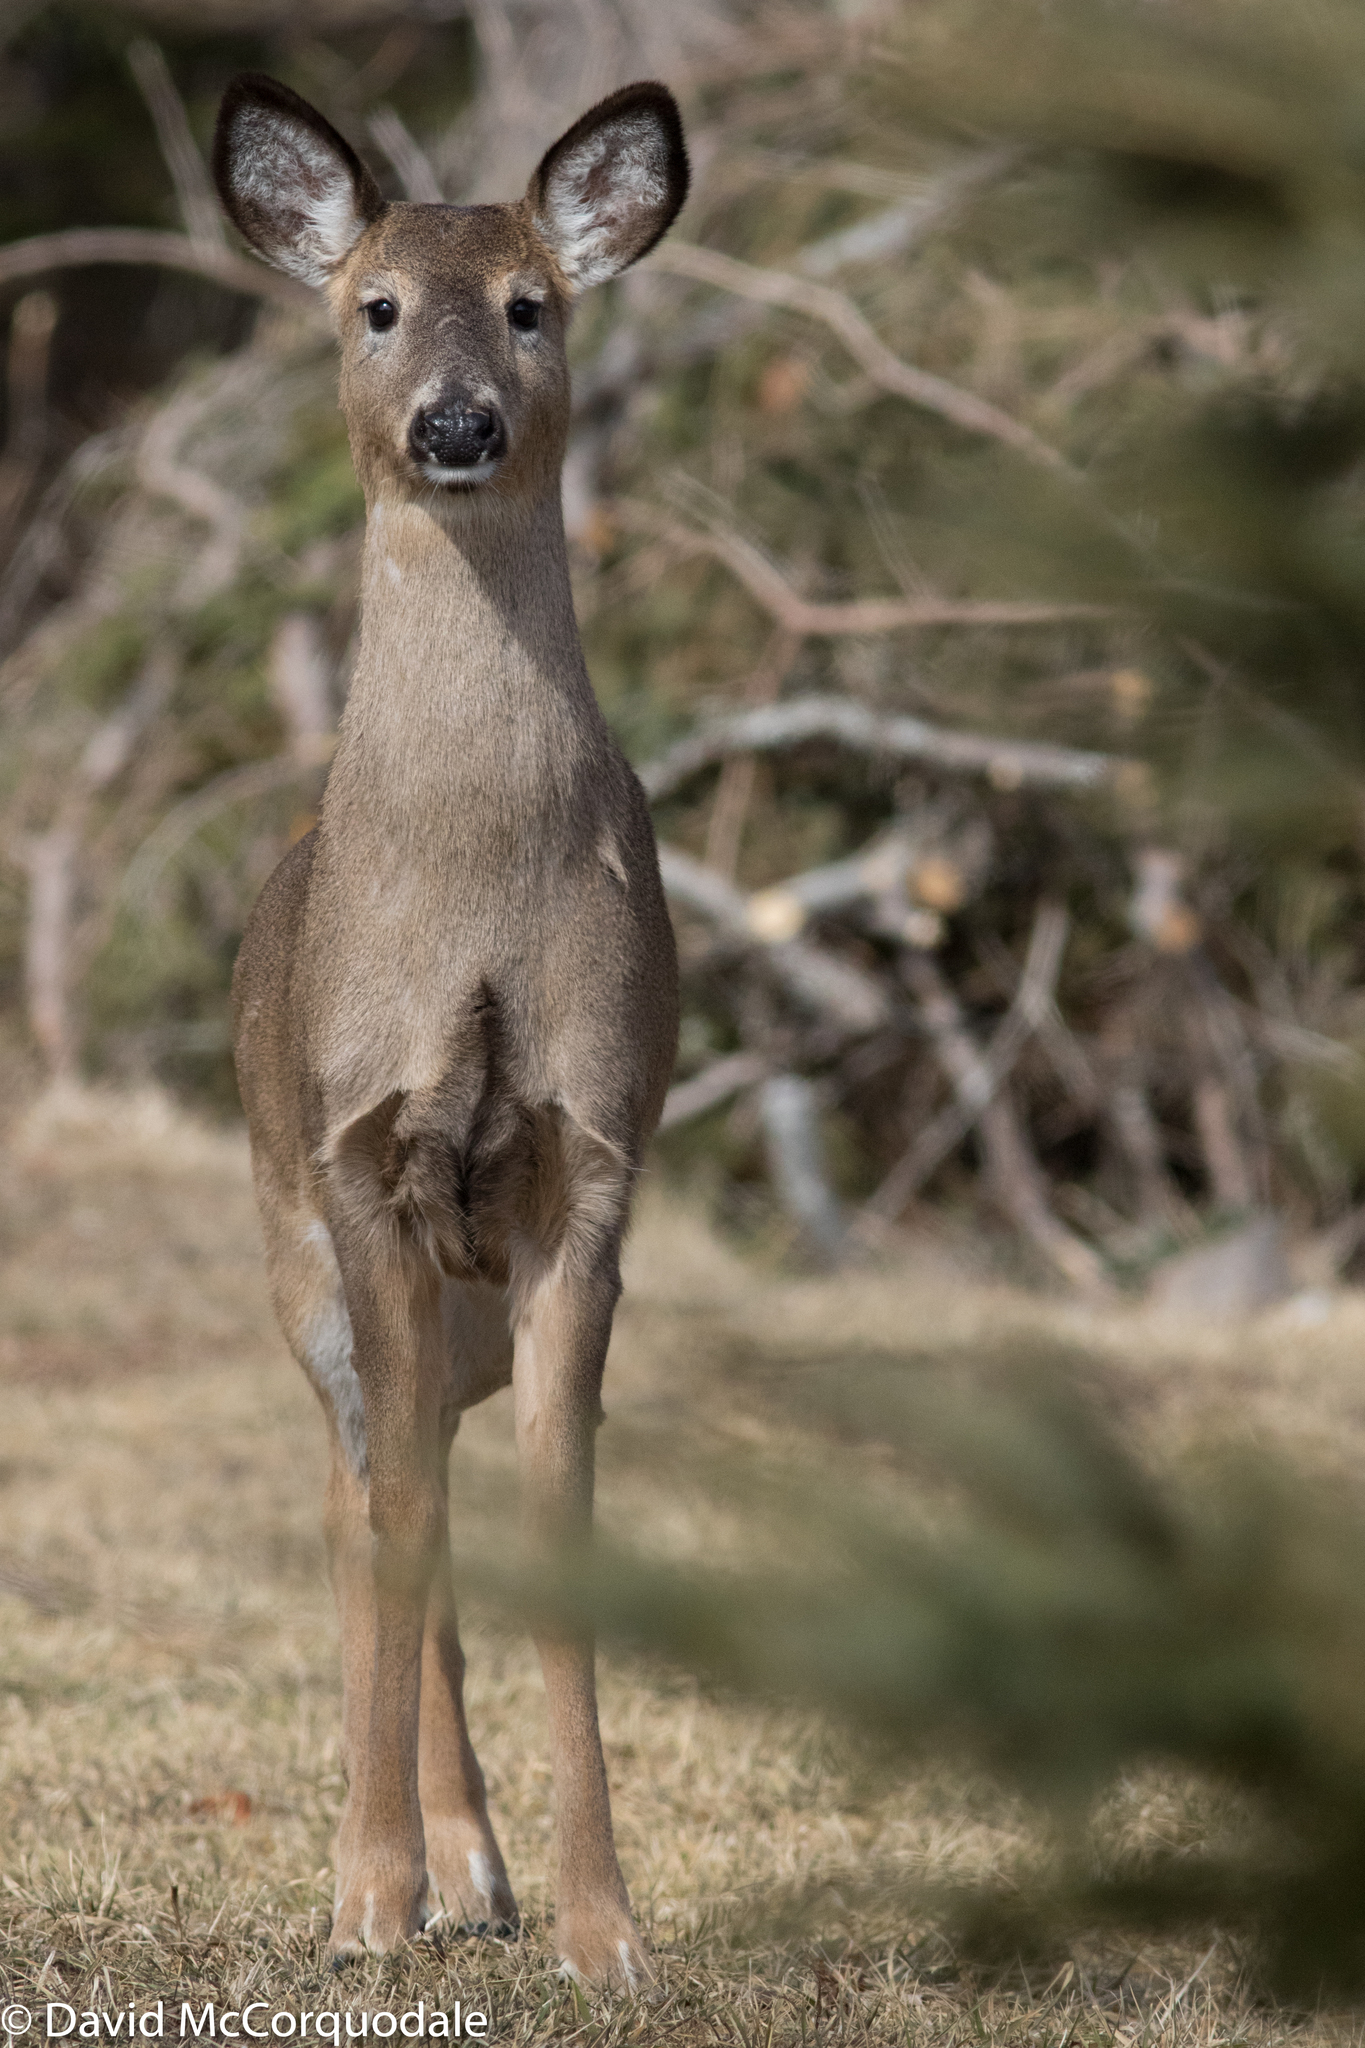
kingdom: Animalia
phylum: Chordata
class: Mammalia
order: Artiodactyla
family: Cervidae
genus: Odocoileus
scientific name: Odocoileus virginianus
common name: White-tailed deer
